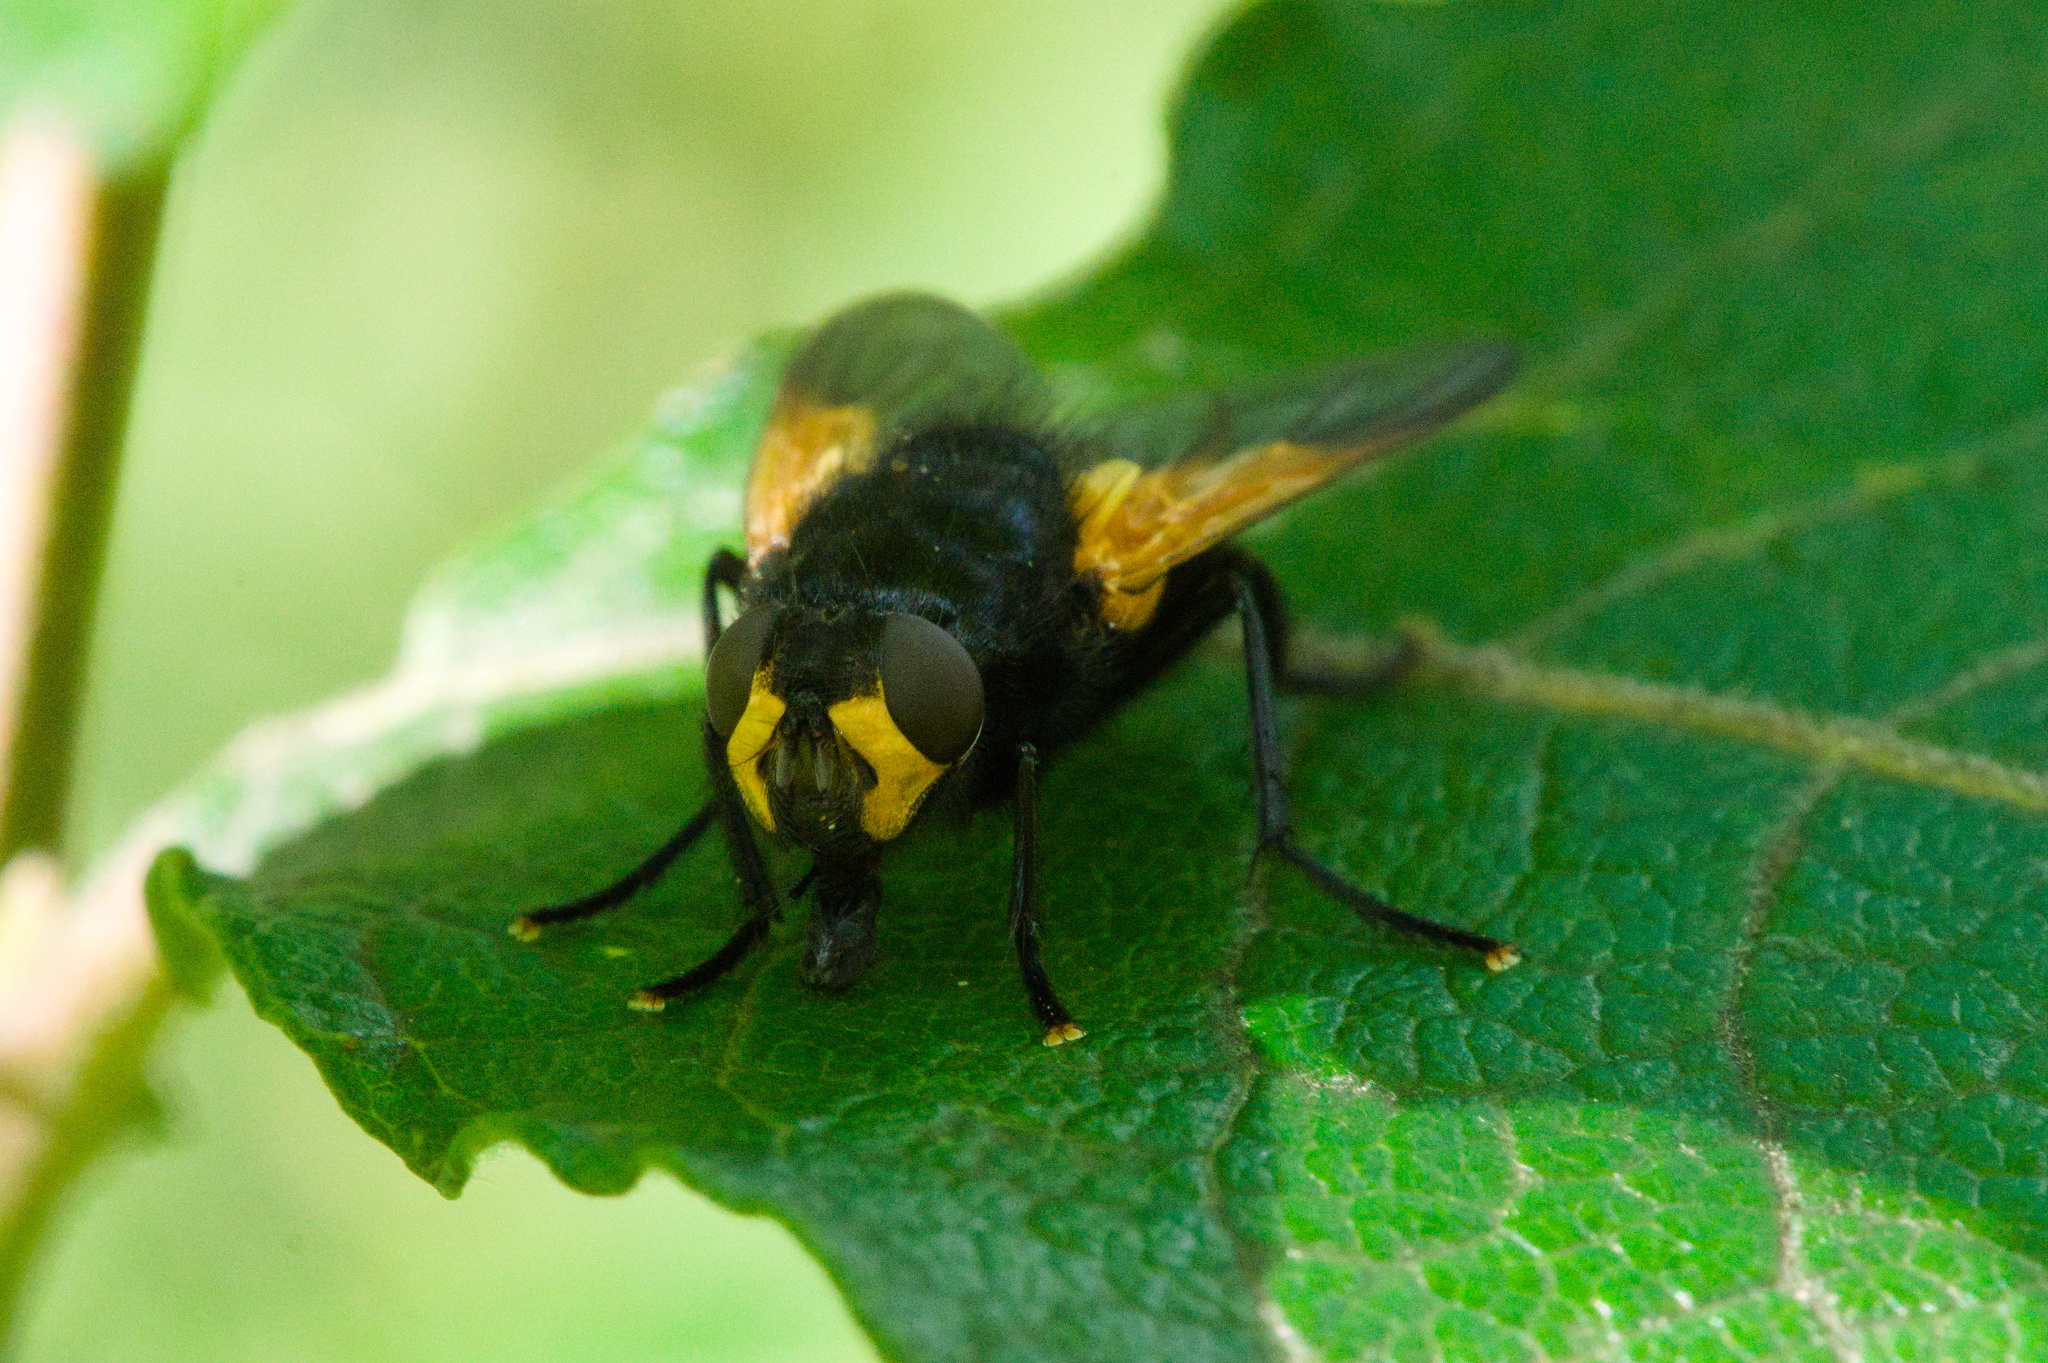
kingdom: Animalia
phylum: Arthropoda
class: Insecta
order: Diptera
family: Muscidae
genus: Mesembrina
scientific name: Mesembrina meridiana
